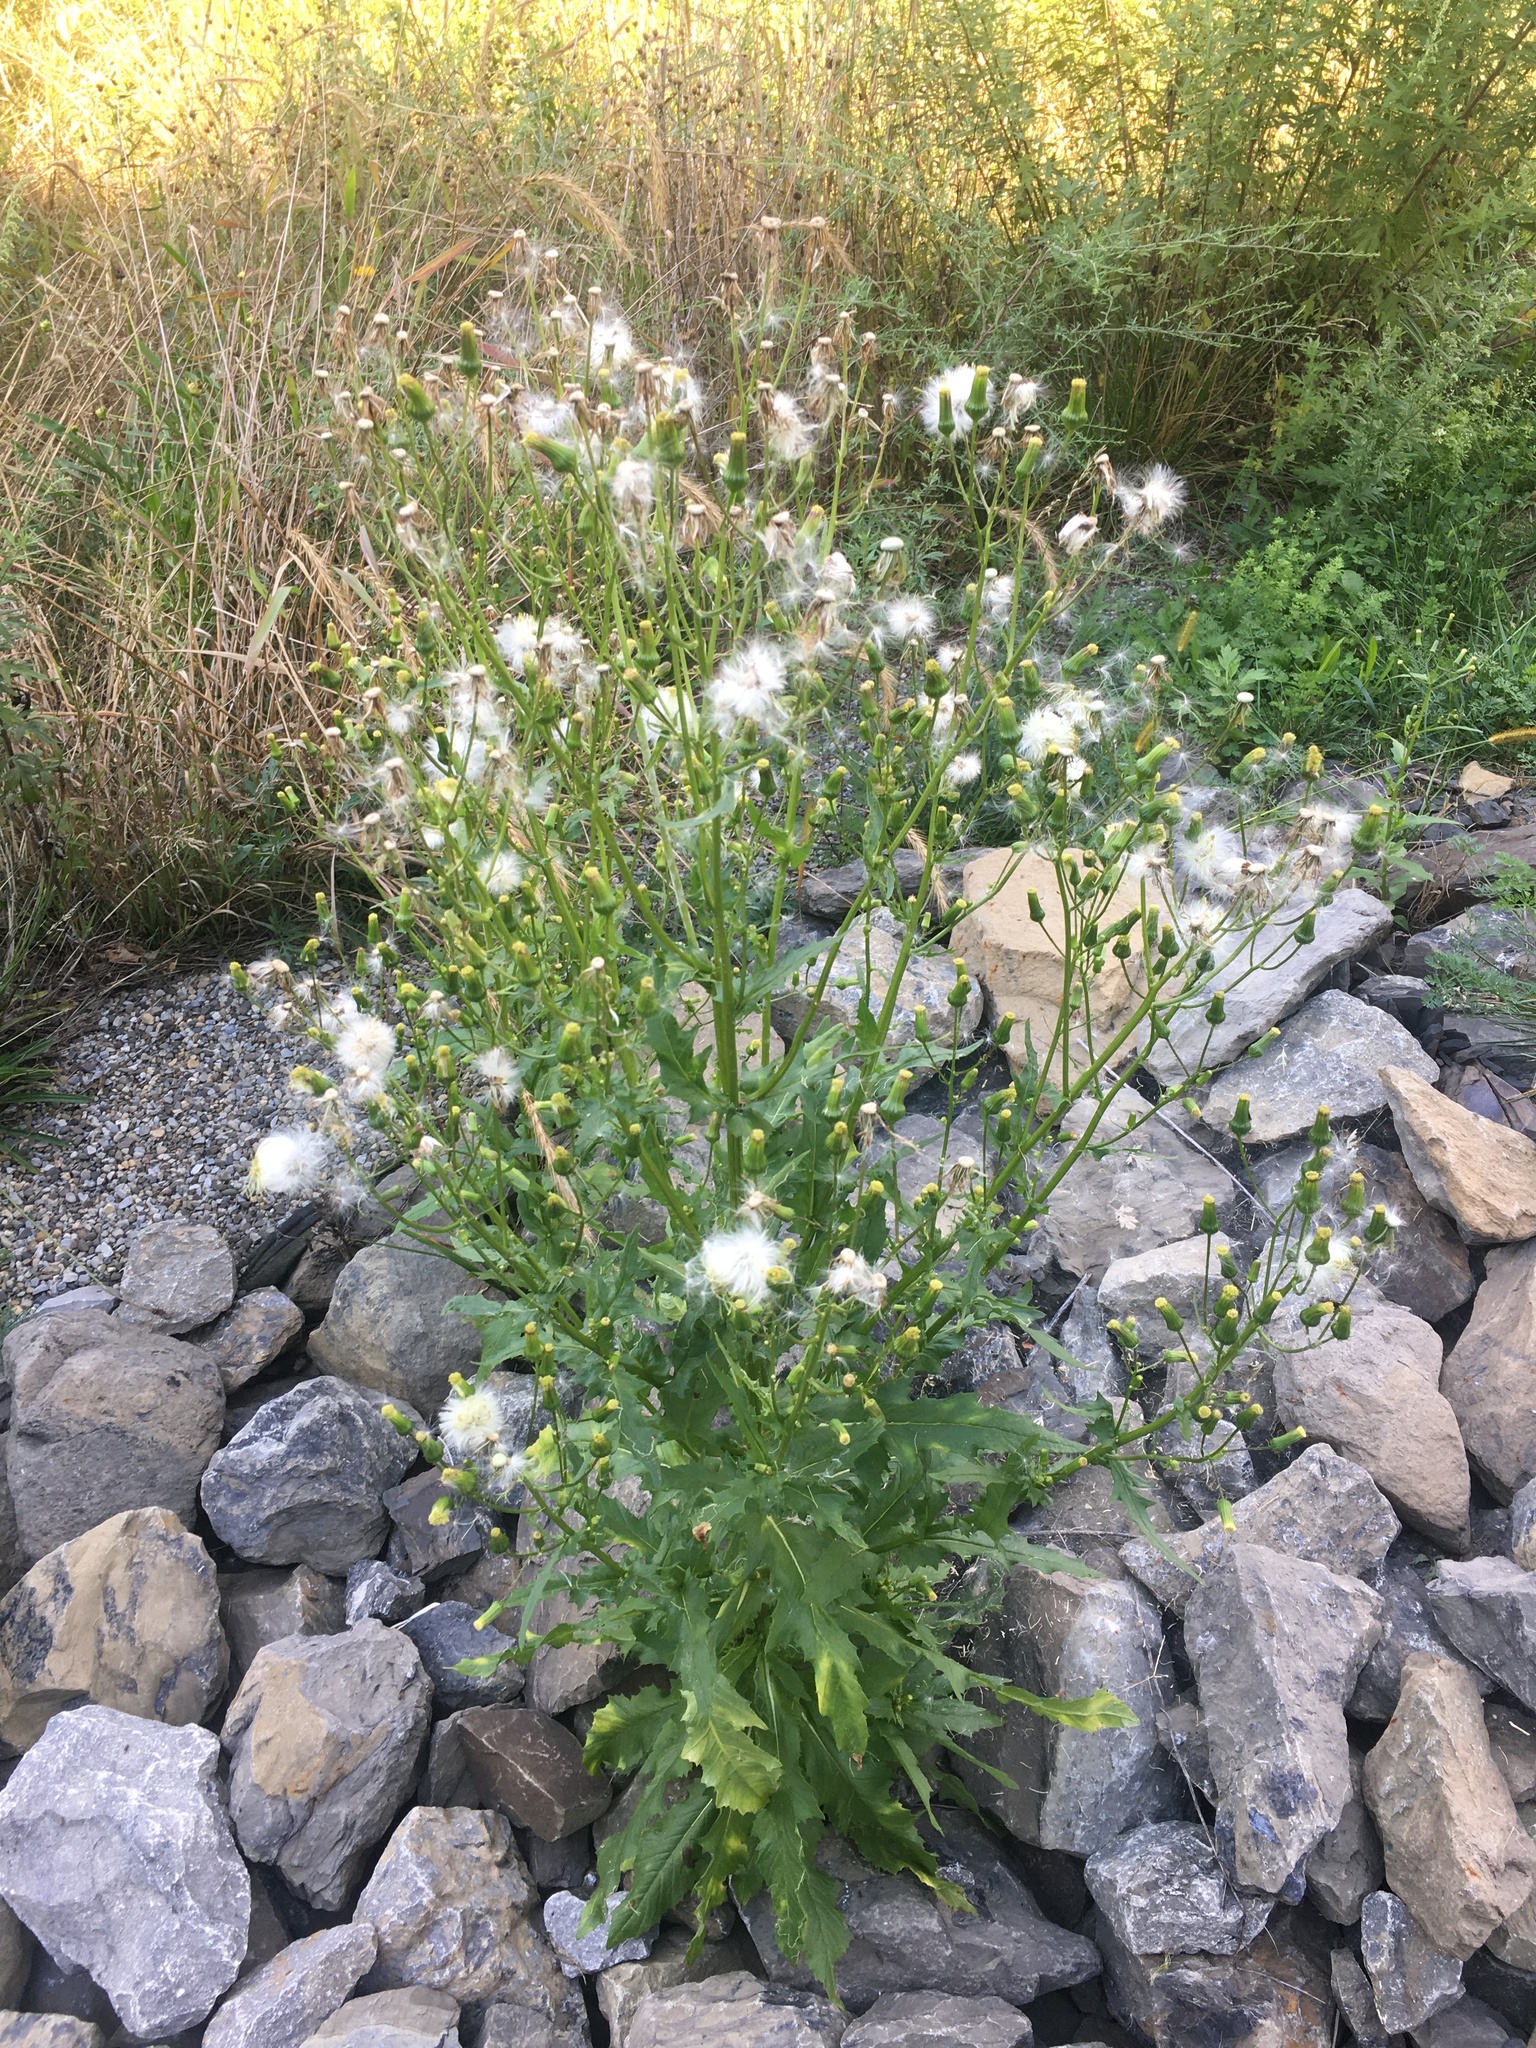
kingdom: Plantae
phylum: Tracheophyta
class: Magnoliopsida
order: Asterales
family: Asteraceae
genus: Erechtites
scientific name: Erechtites hieraciifolius
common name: American burnweed
